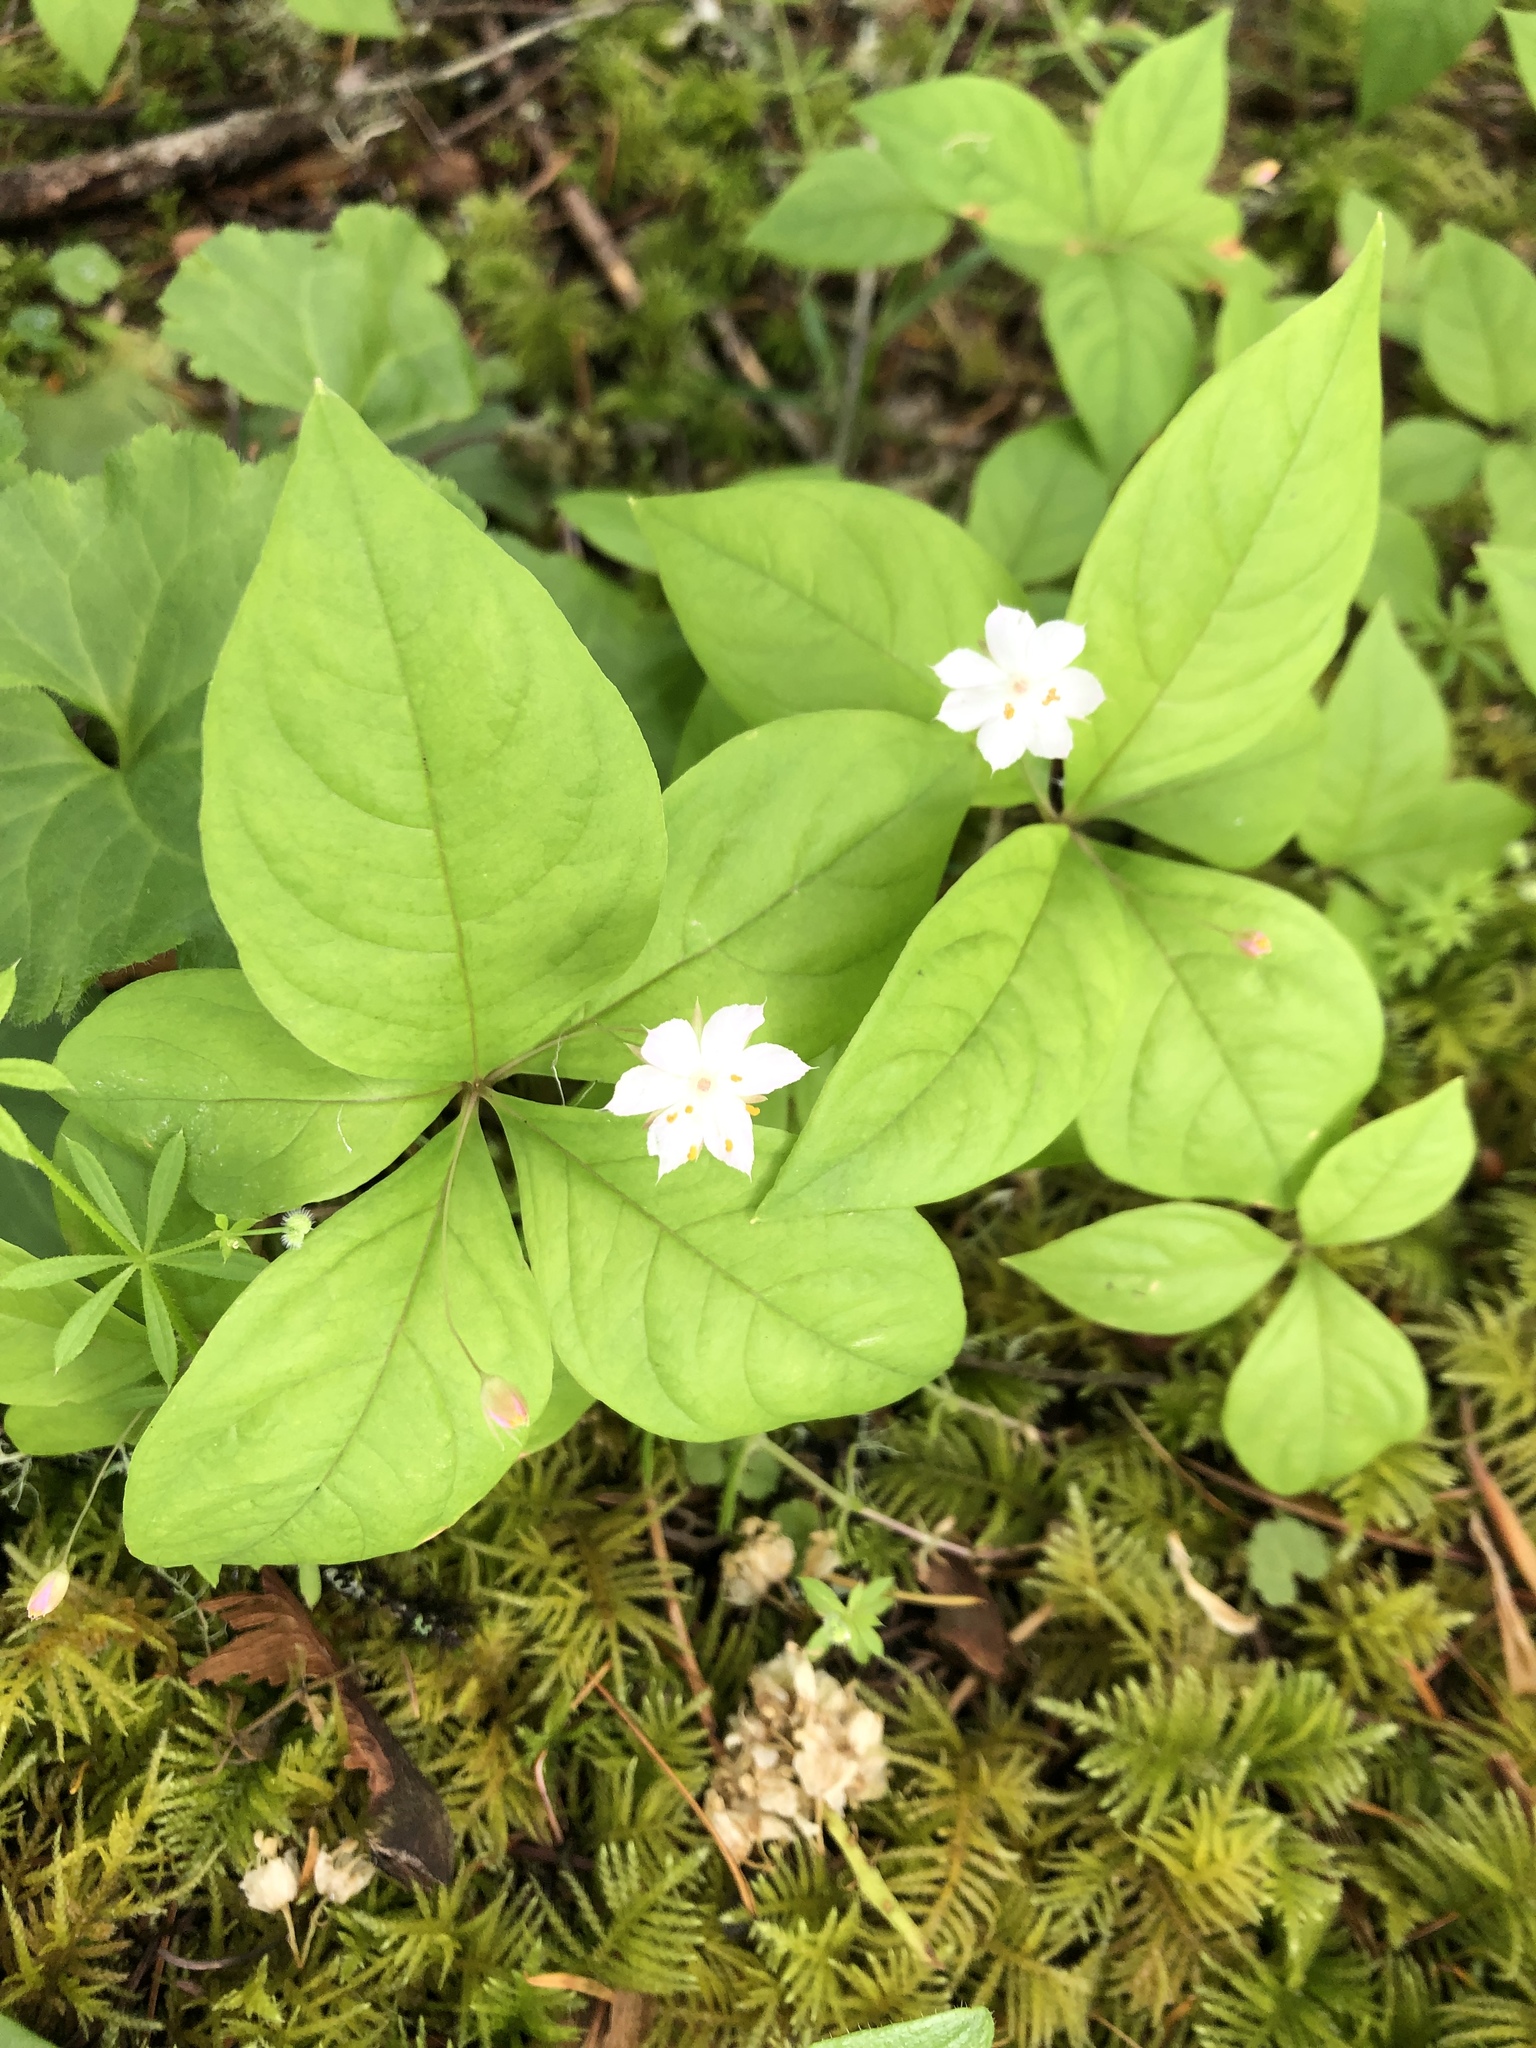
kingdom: Plantae
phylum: Tracheophyta
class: Magnoliopsida
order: Ericales
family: Primulaceae
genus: Lysimachia
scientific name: Lysimachia latifolia
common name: Pacific starflower
